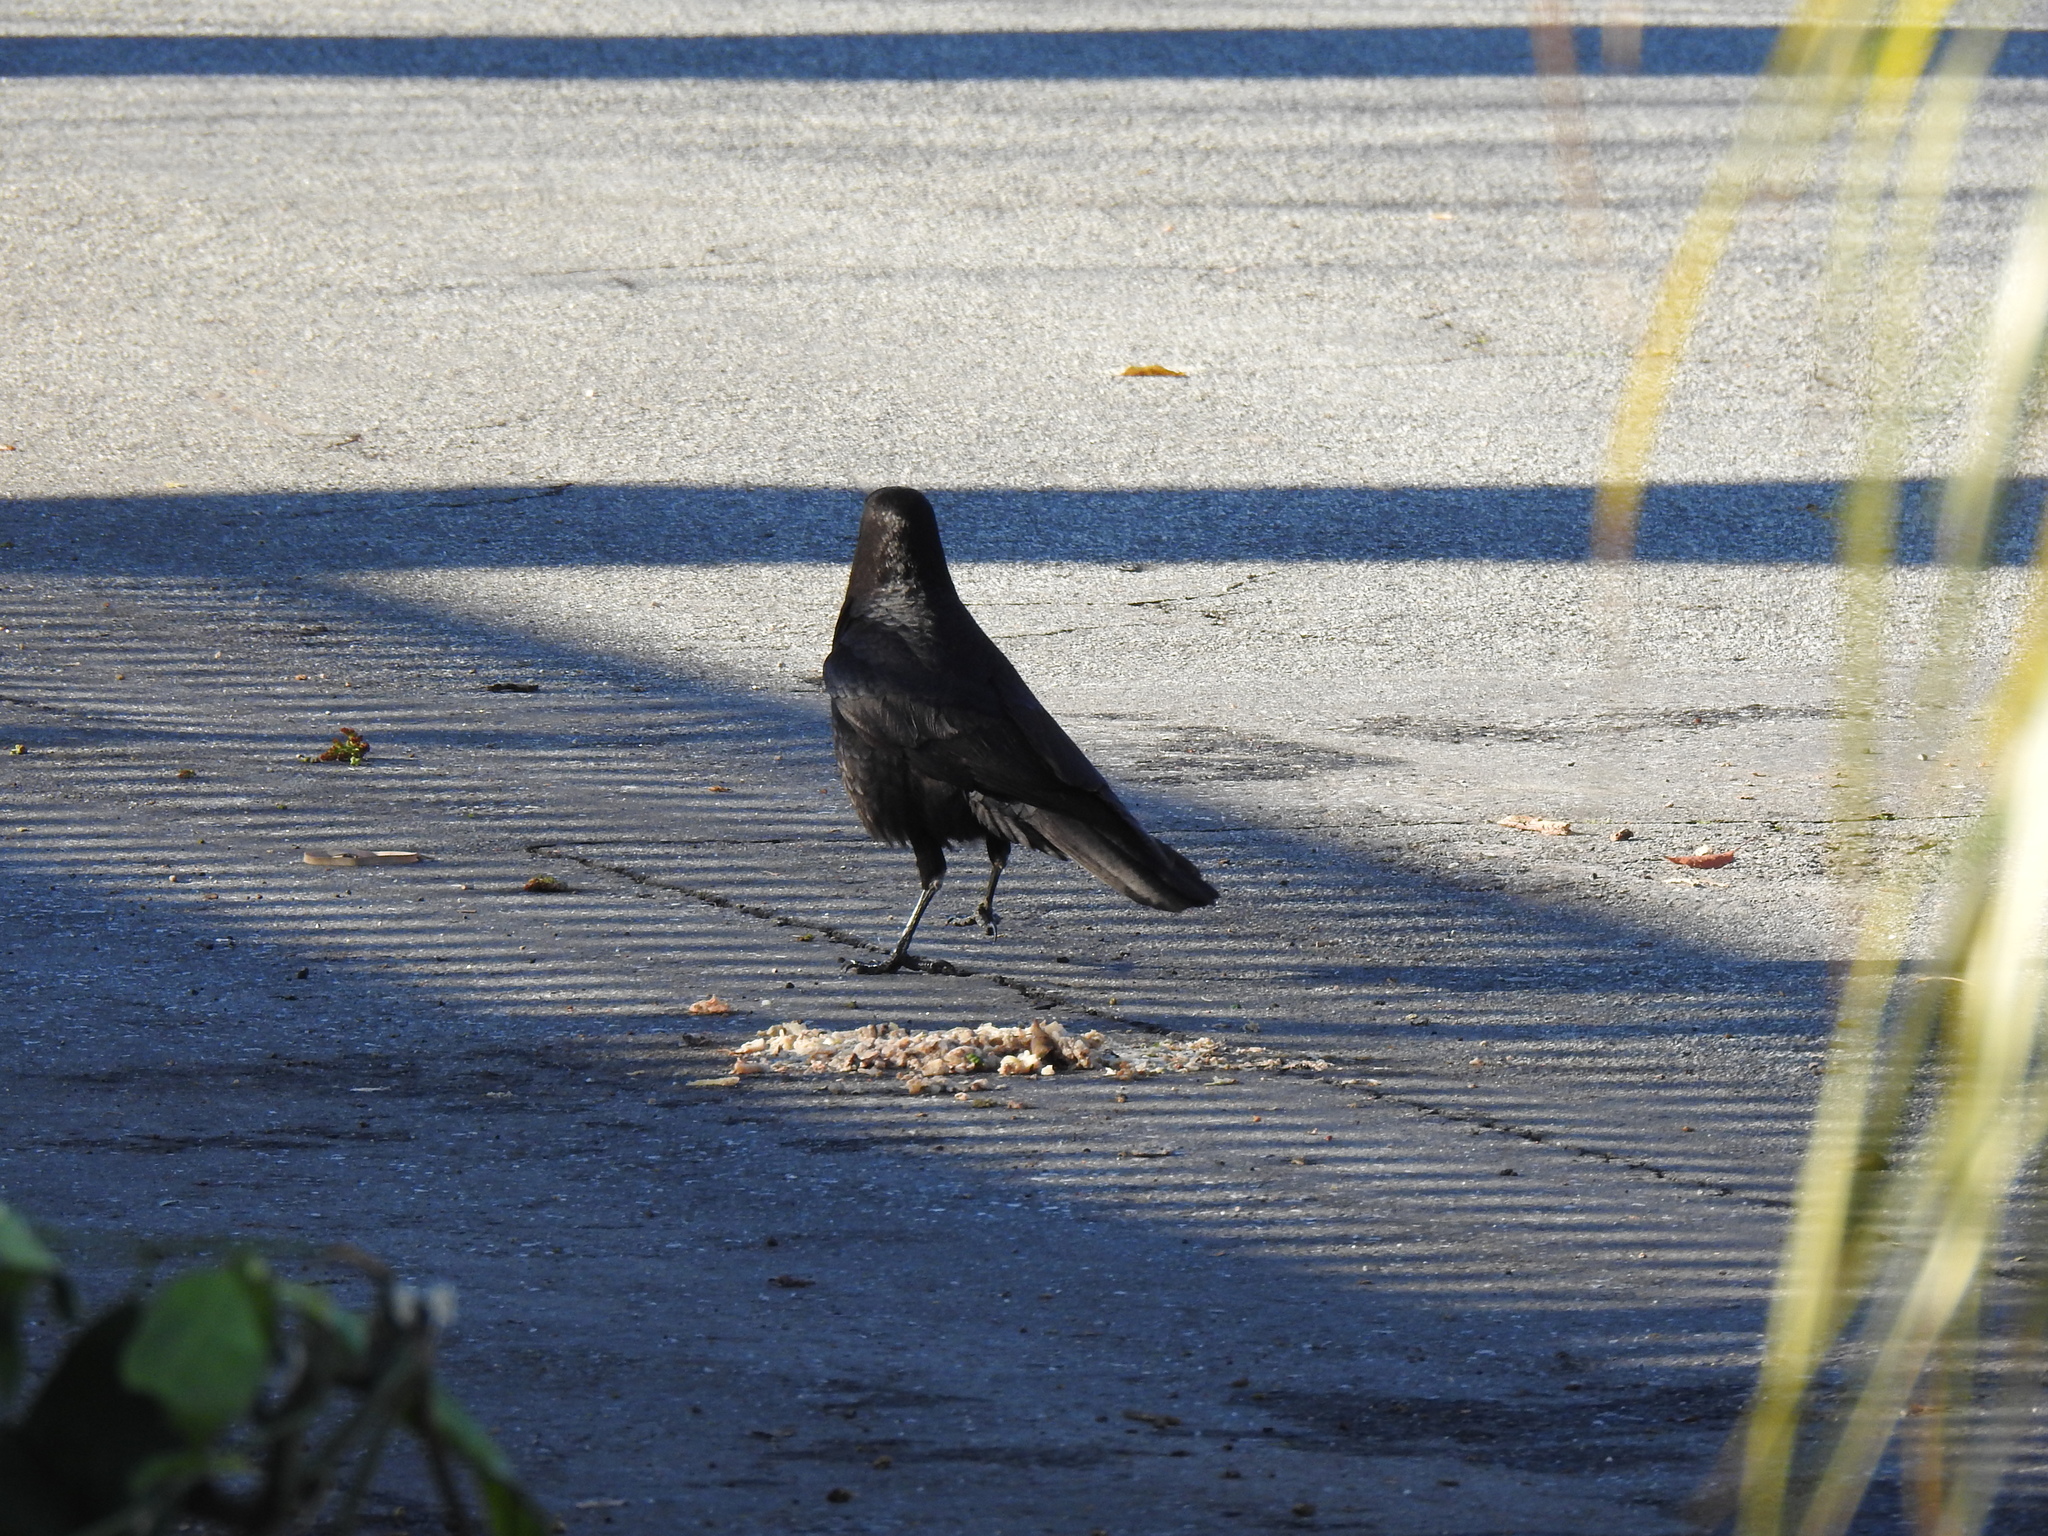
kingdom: Animalia
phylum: Chordata
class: Aves
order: Passeriformes
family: Corvidae
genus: Corvus
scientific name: Corvus brachyrhynchos
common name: American crow
